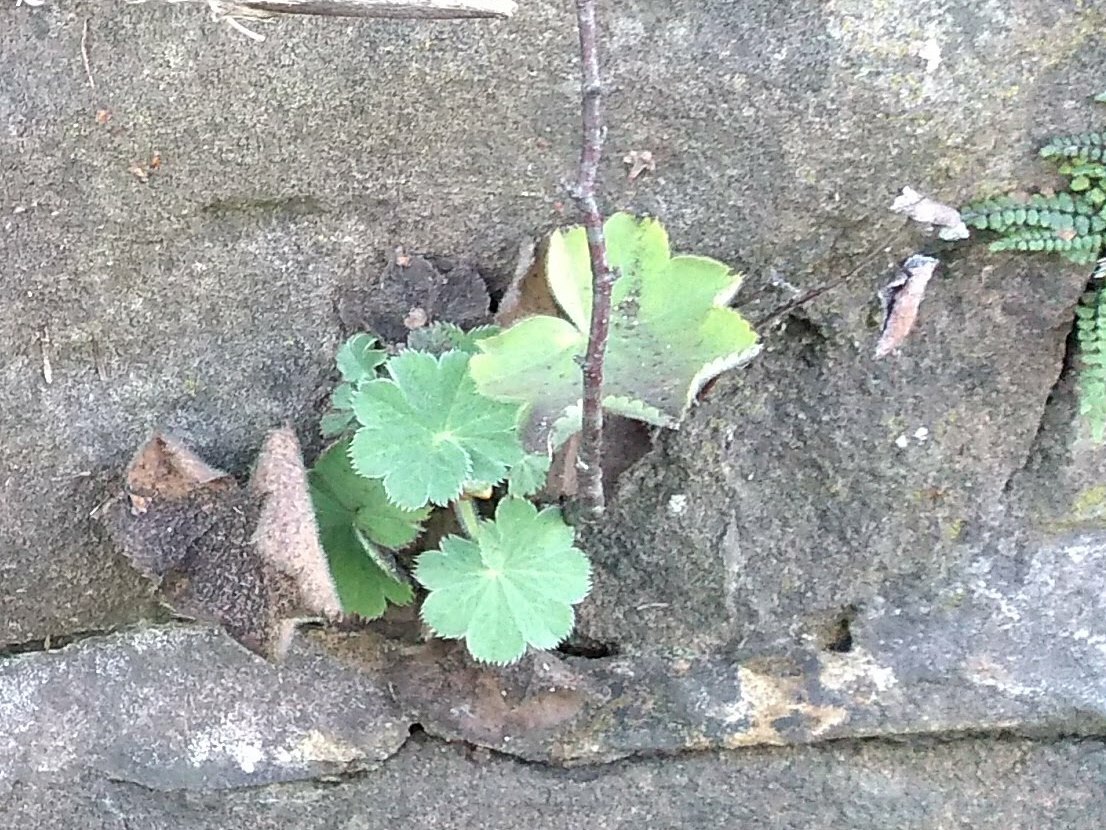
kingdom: Plantae
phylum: Tracheophyta
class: Magnoliopsida
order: Rosales
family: Rosaceae
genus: Alchemilla
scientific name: Alchemilla mollis
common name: Lady's-mantle
